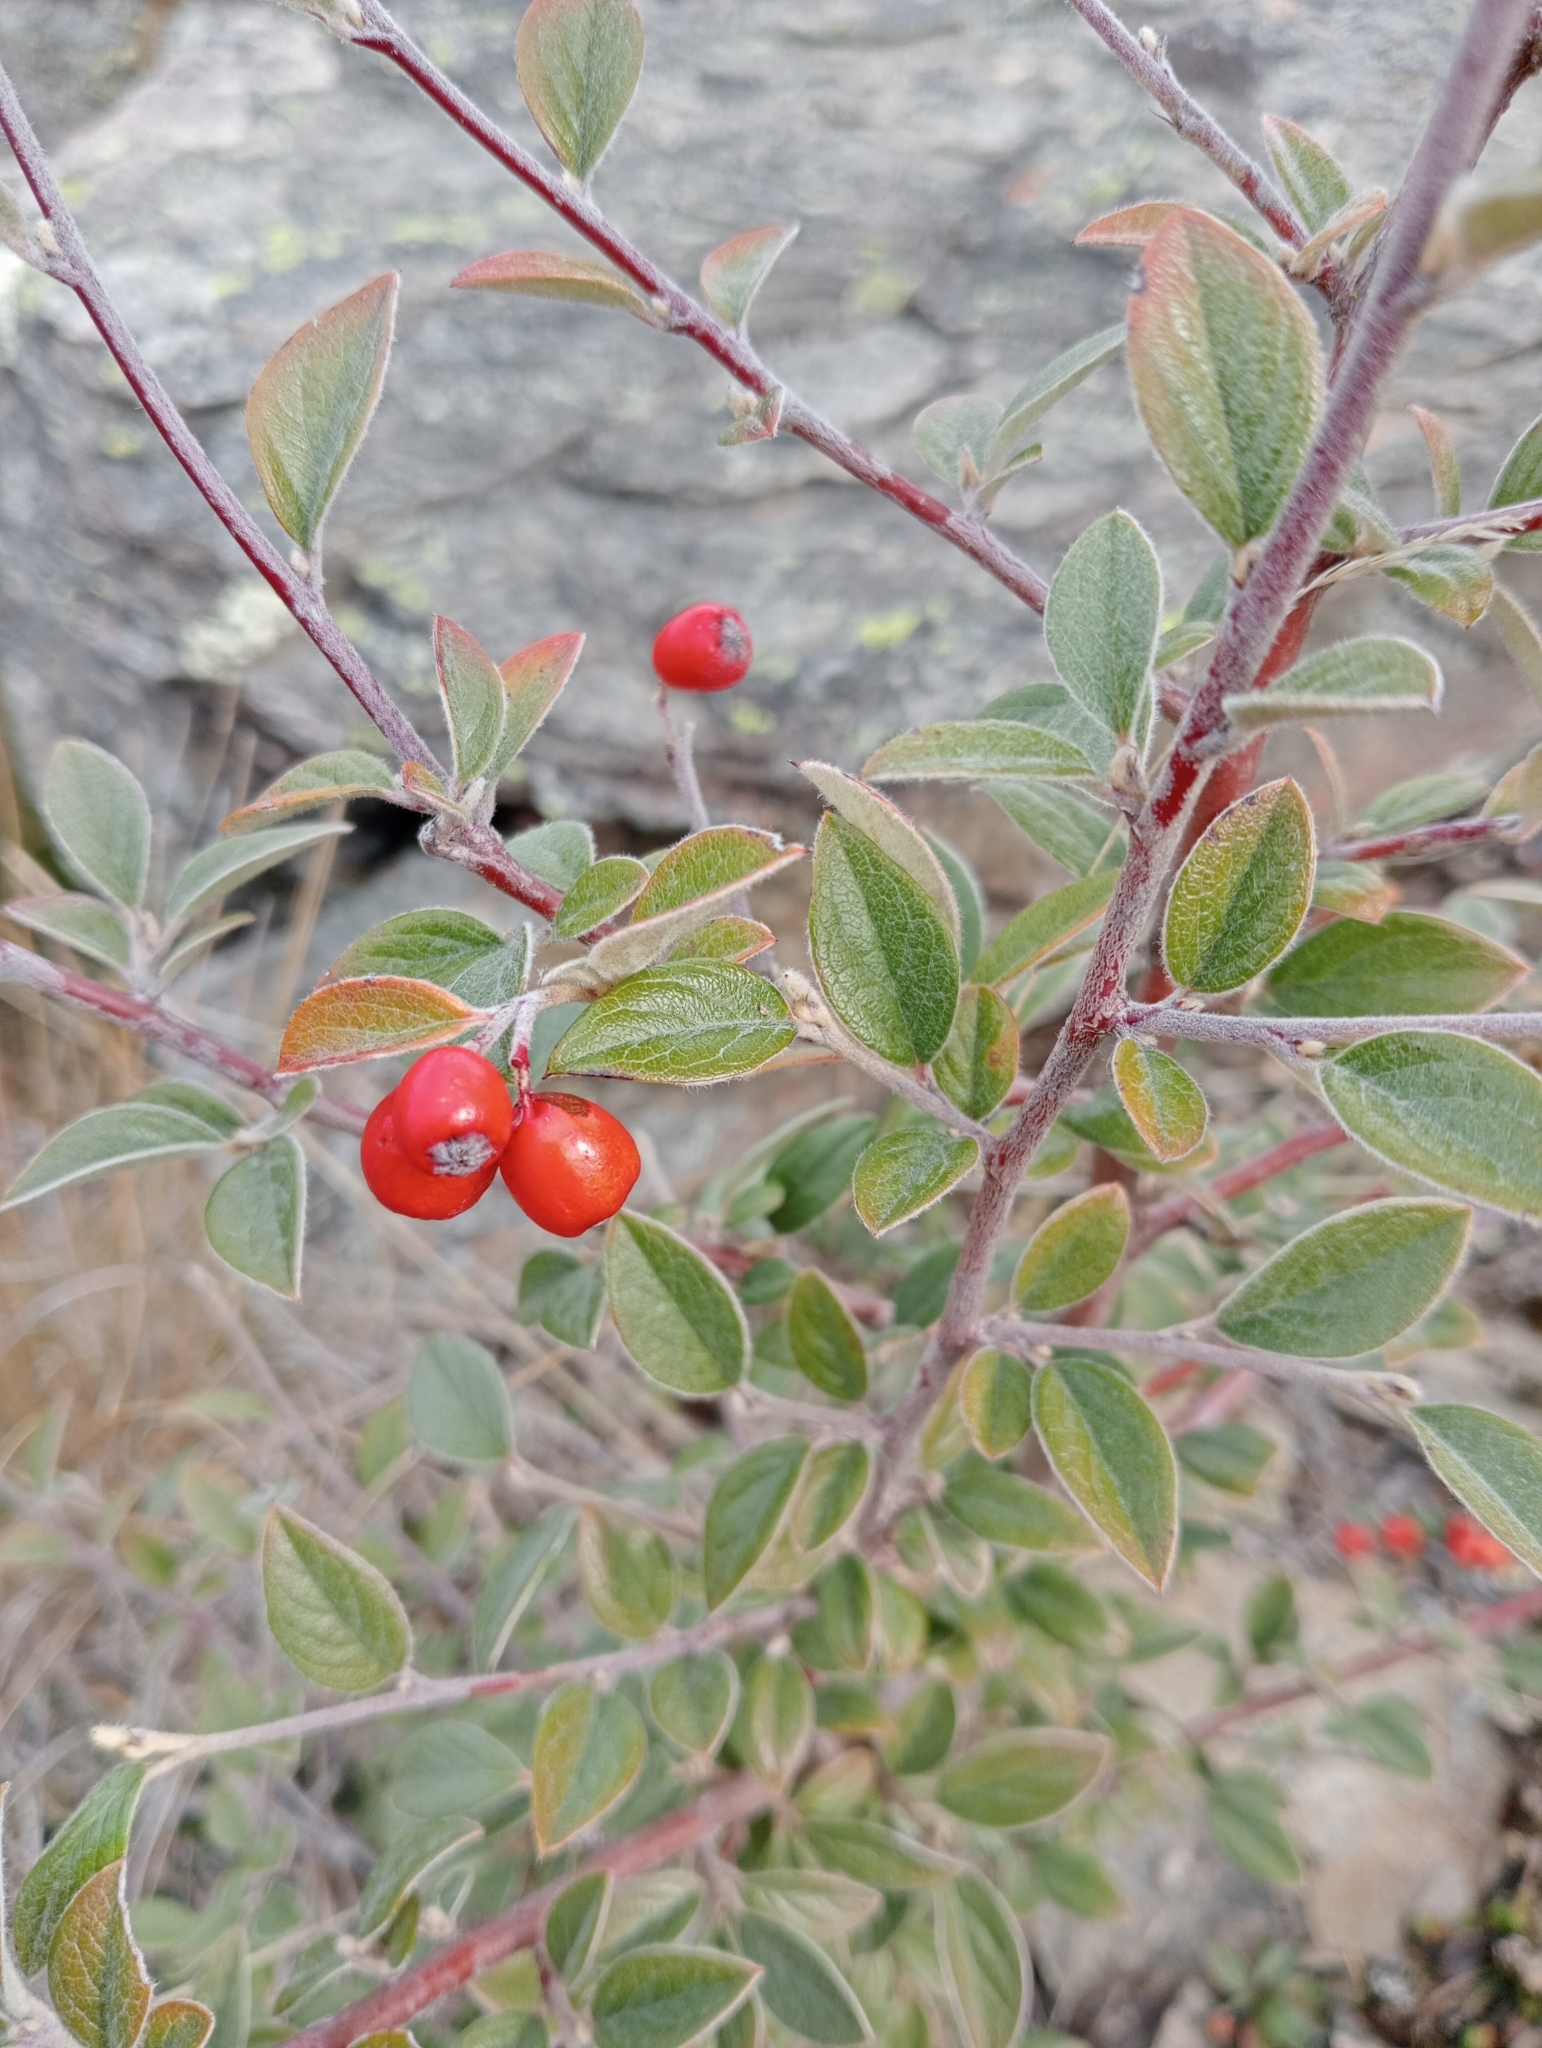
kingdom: Plantae
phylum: Tracheophyta
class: Magnoliopsida
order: Rosales
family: Rosaceae
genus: Cotoneaster
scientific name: Cotoneaster franchetii
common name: Franchet's cotoneaster
